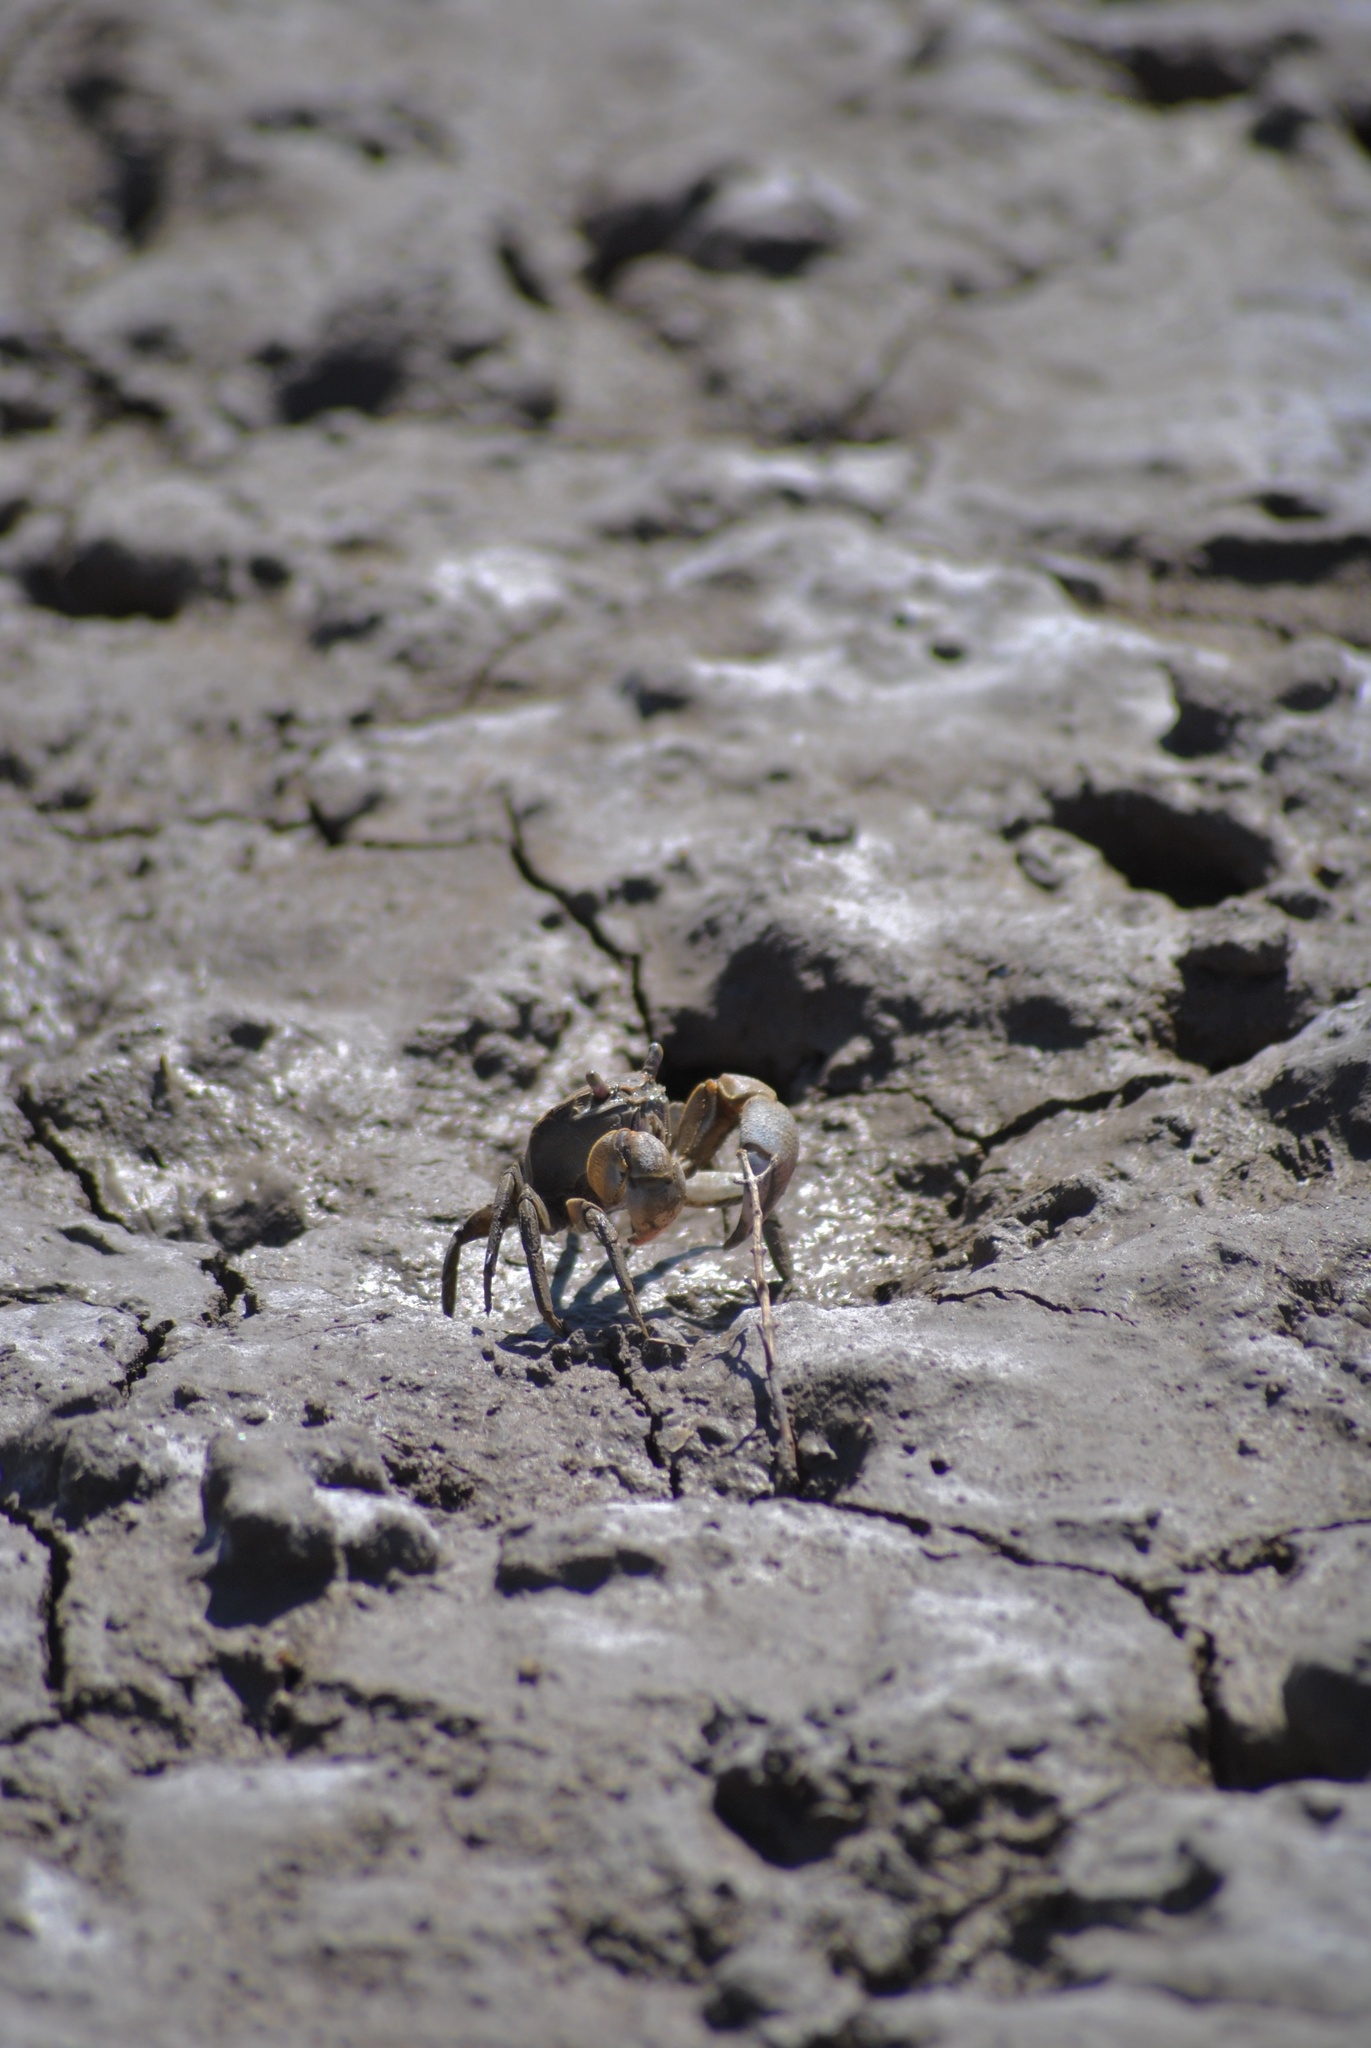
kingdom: Animalia
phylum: Arthropoda
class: Malacostraca
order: Decapoda
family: Varunidae
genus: Neohelice
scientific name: Neohelice granulata
